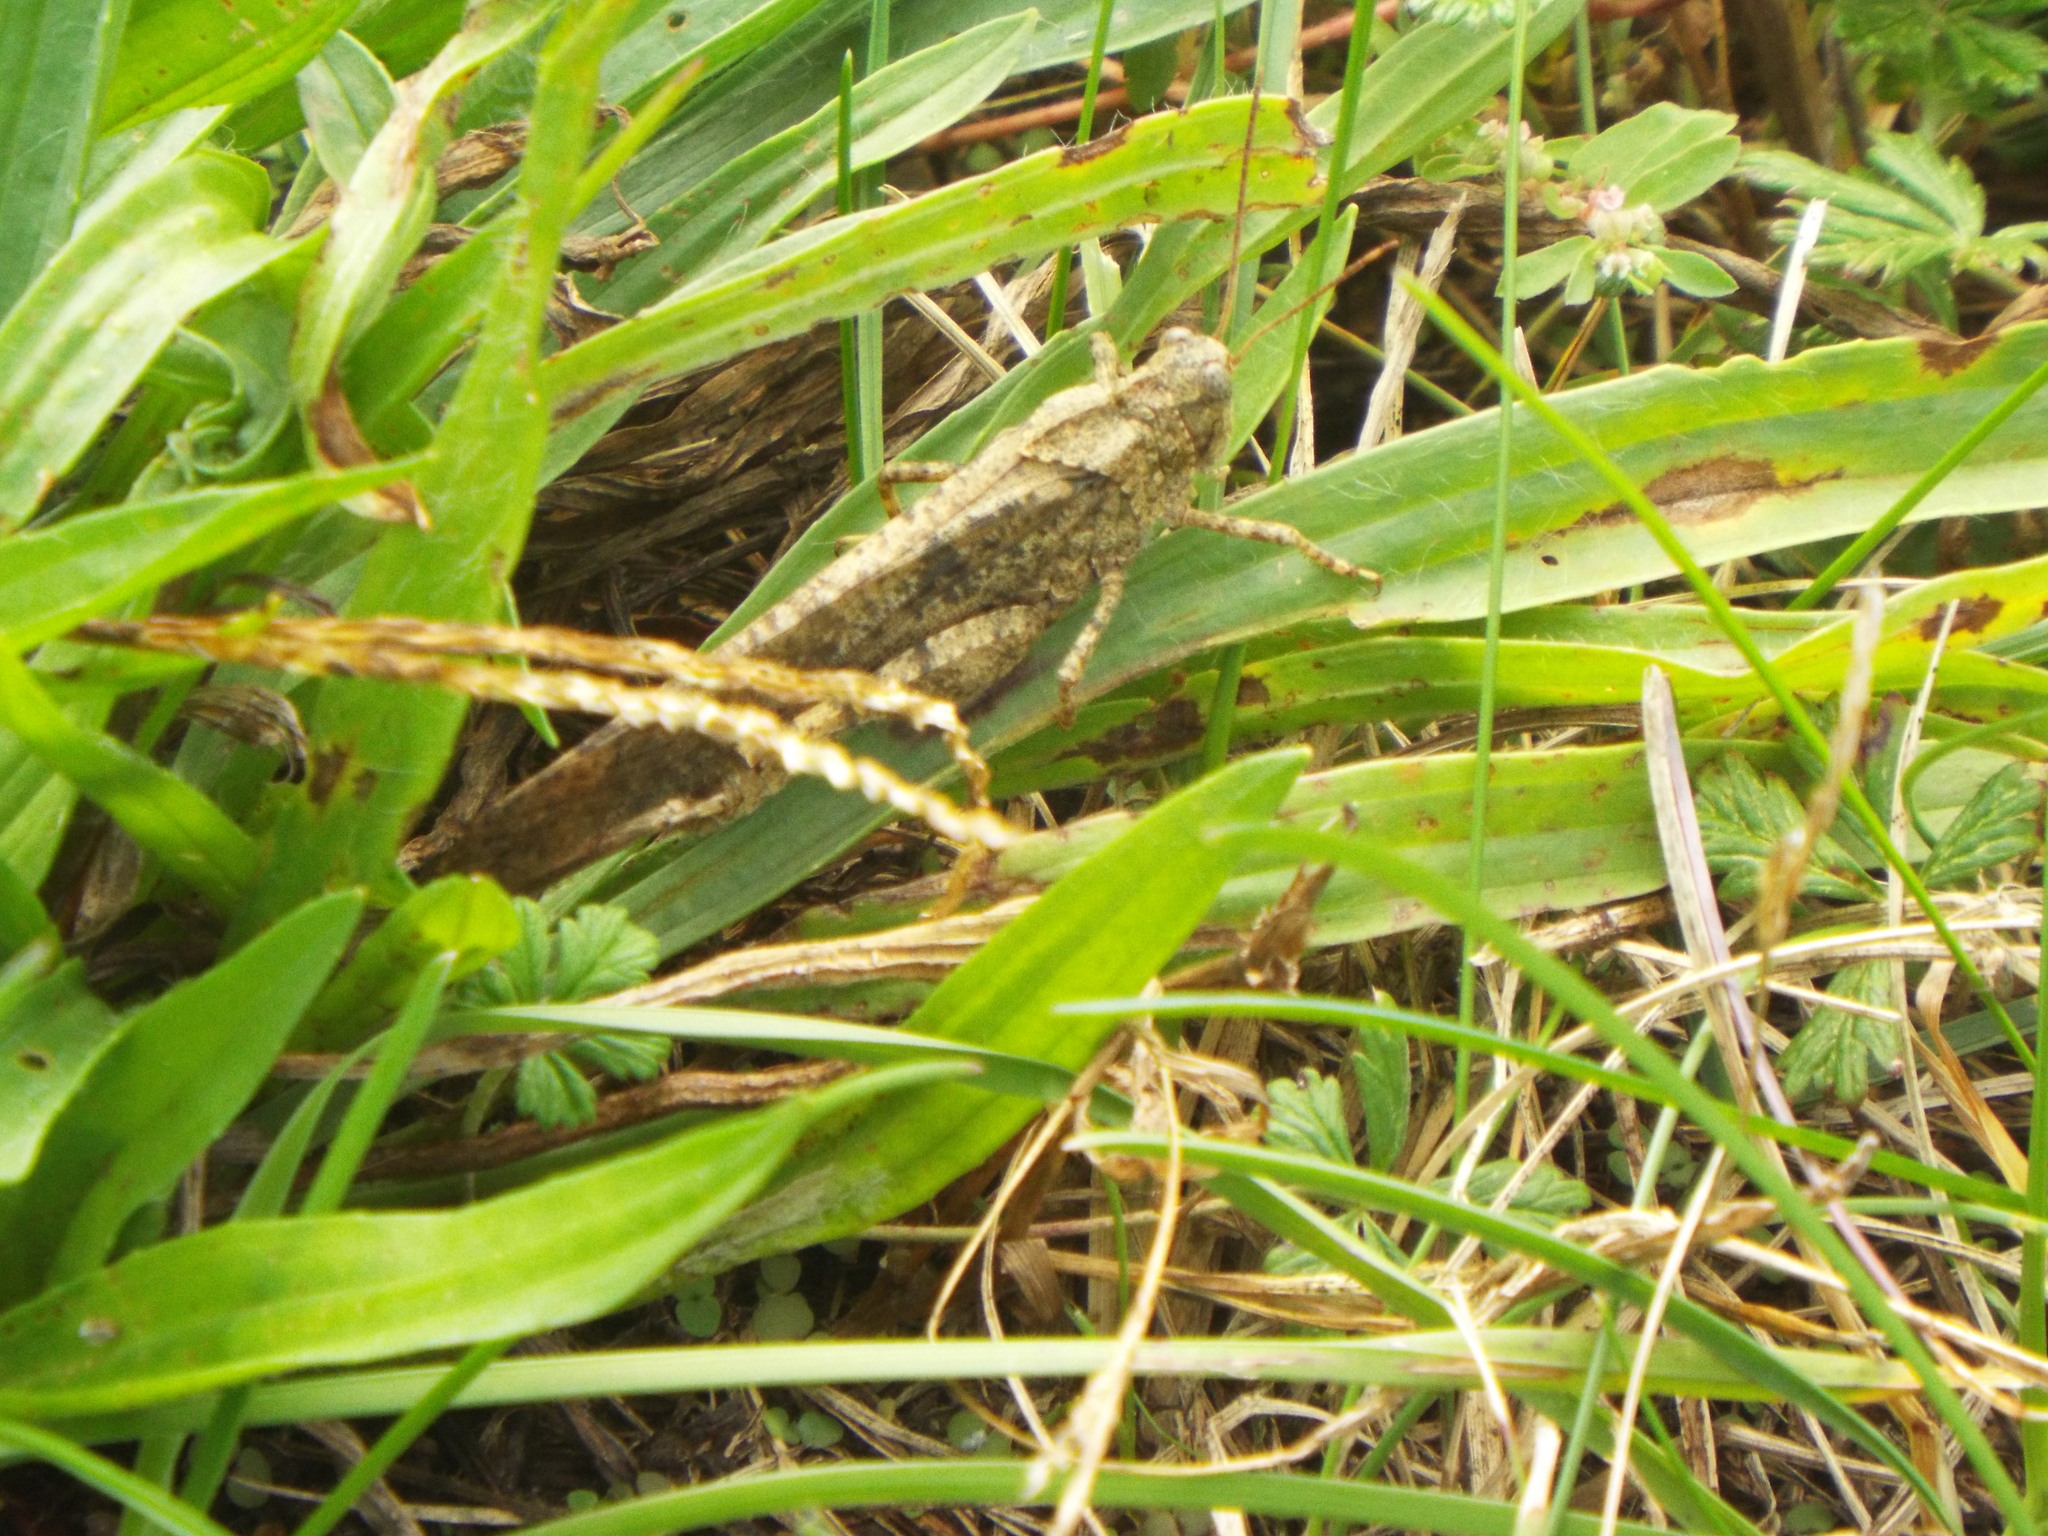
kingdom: Animalia
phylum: Arthropoda
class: Insecta
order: Orthoptera
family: Acrididae
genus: Dissosteira
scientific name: Dissosteira carolina
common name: Carolina grasshopper
